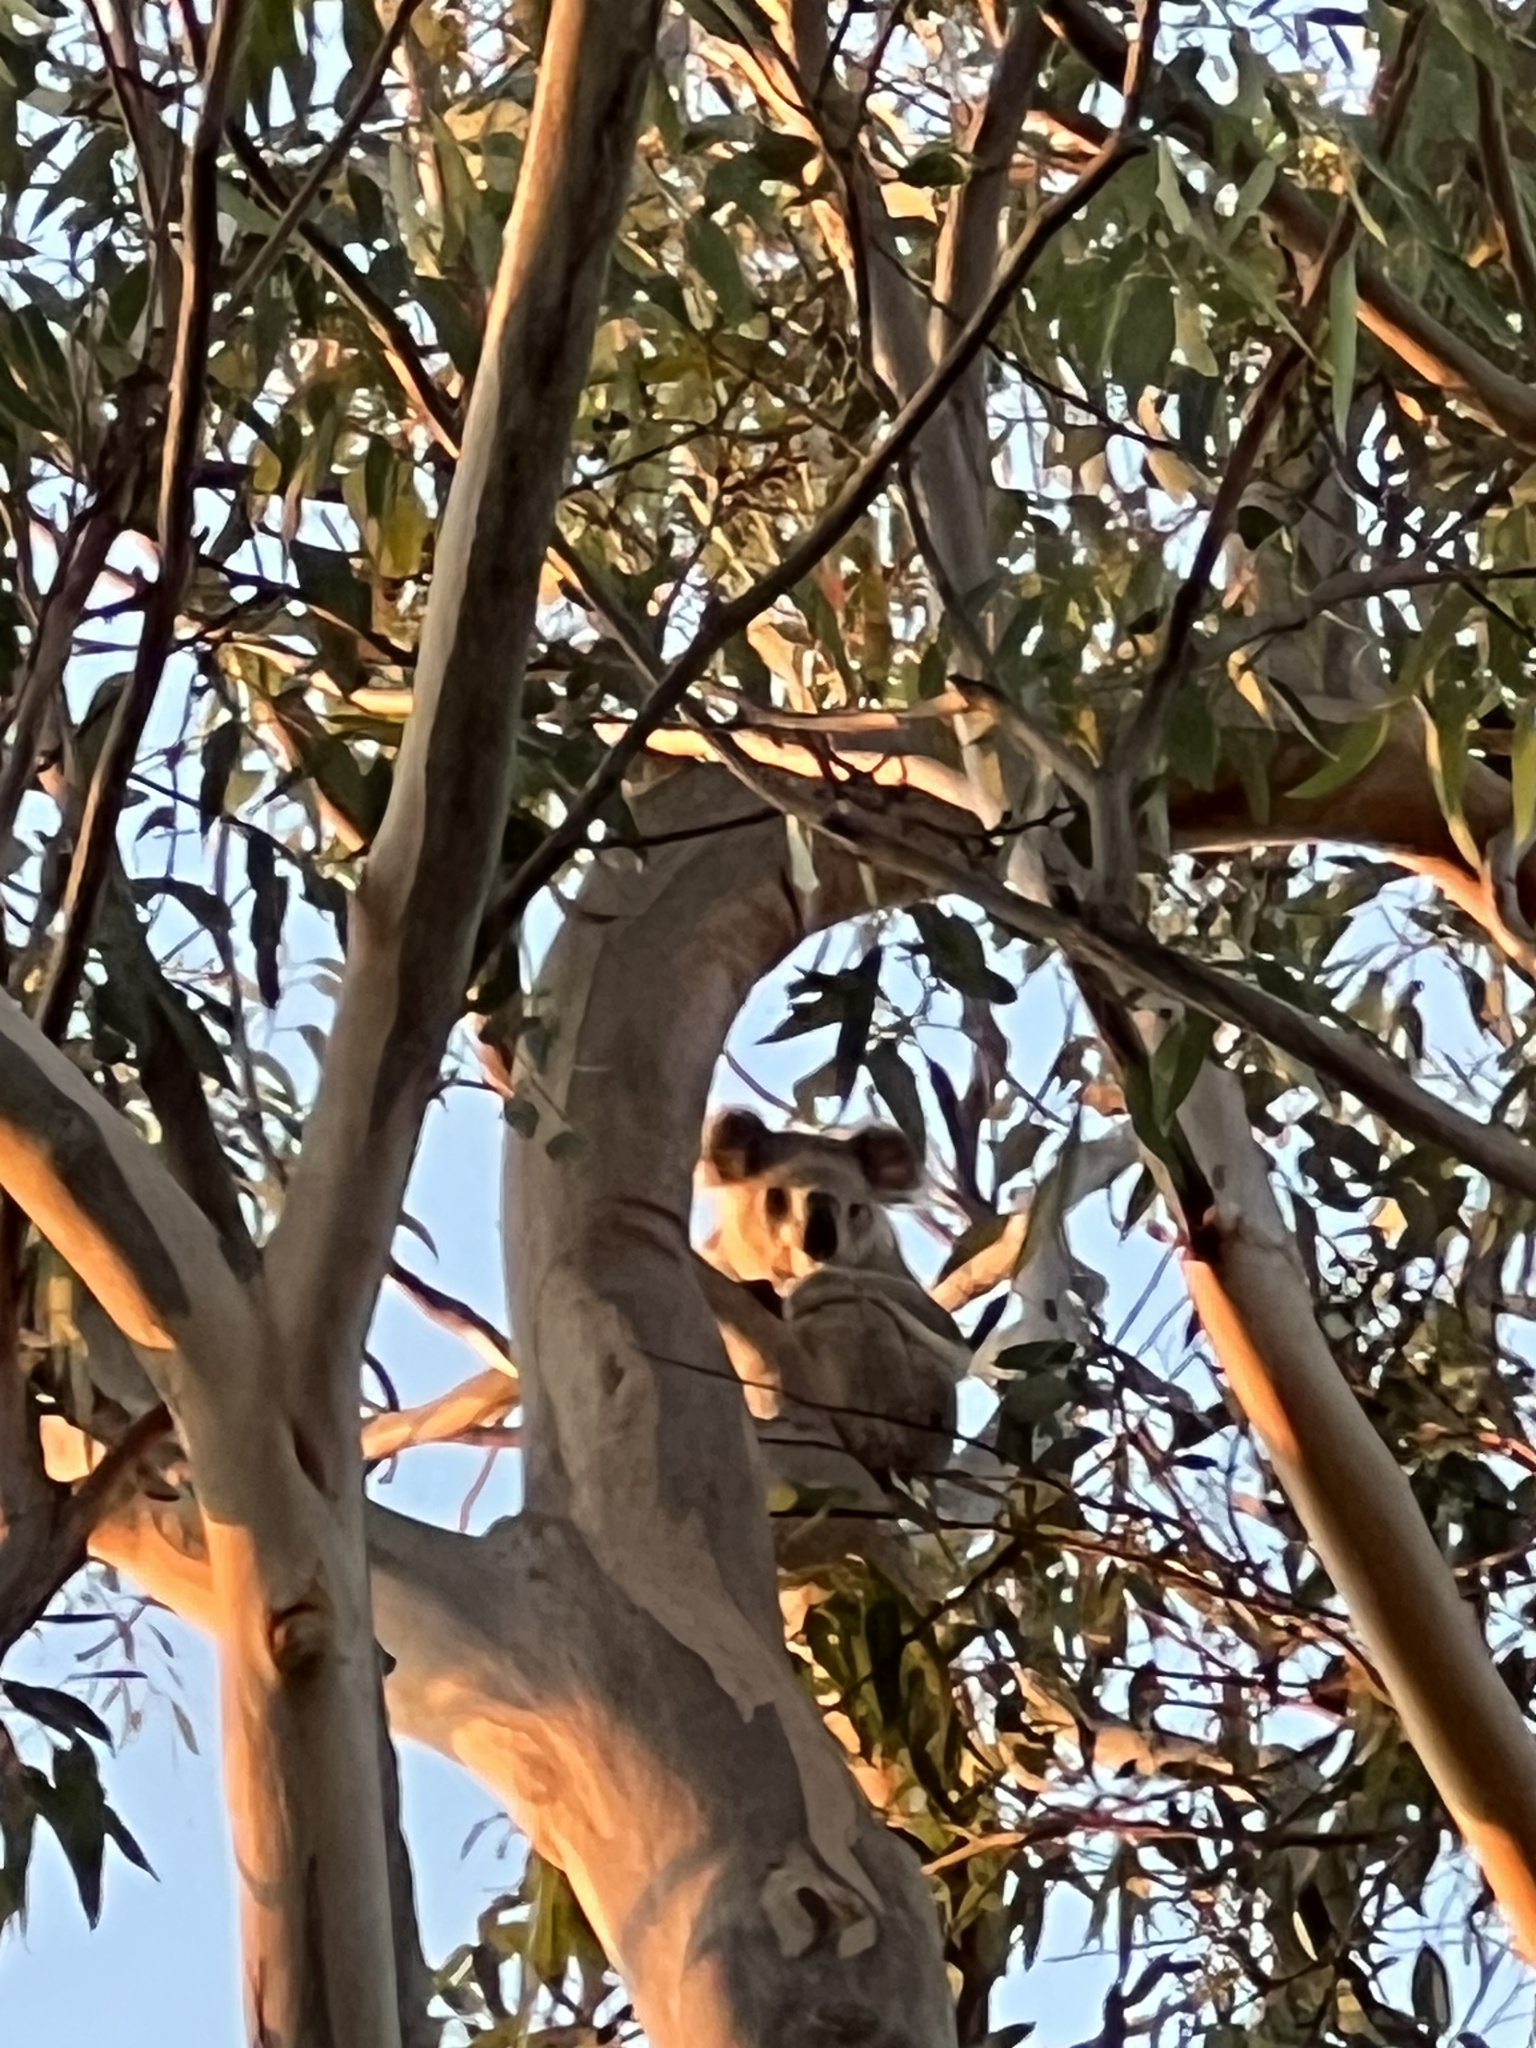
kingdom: Animalia
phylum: Chordata
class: Mammalia
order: Diprotodontia
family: Phascolarctidae
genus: Phascolarctos
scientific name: Phascolarctos cinereus
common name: Koala
